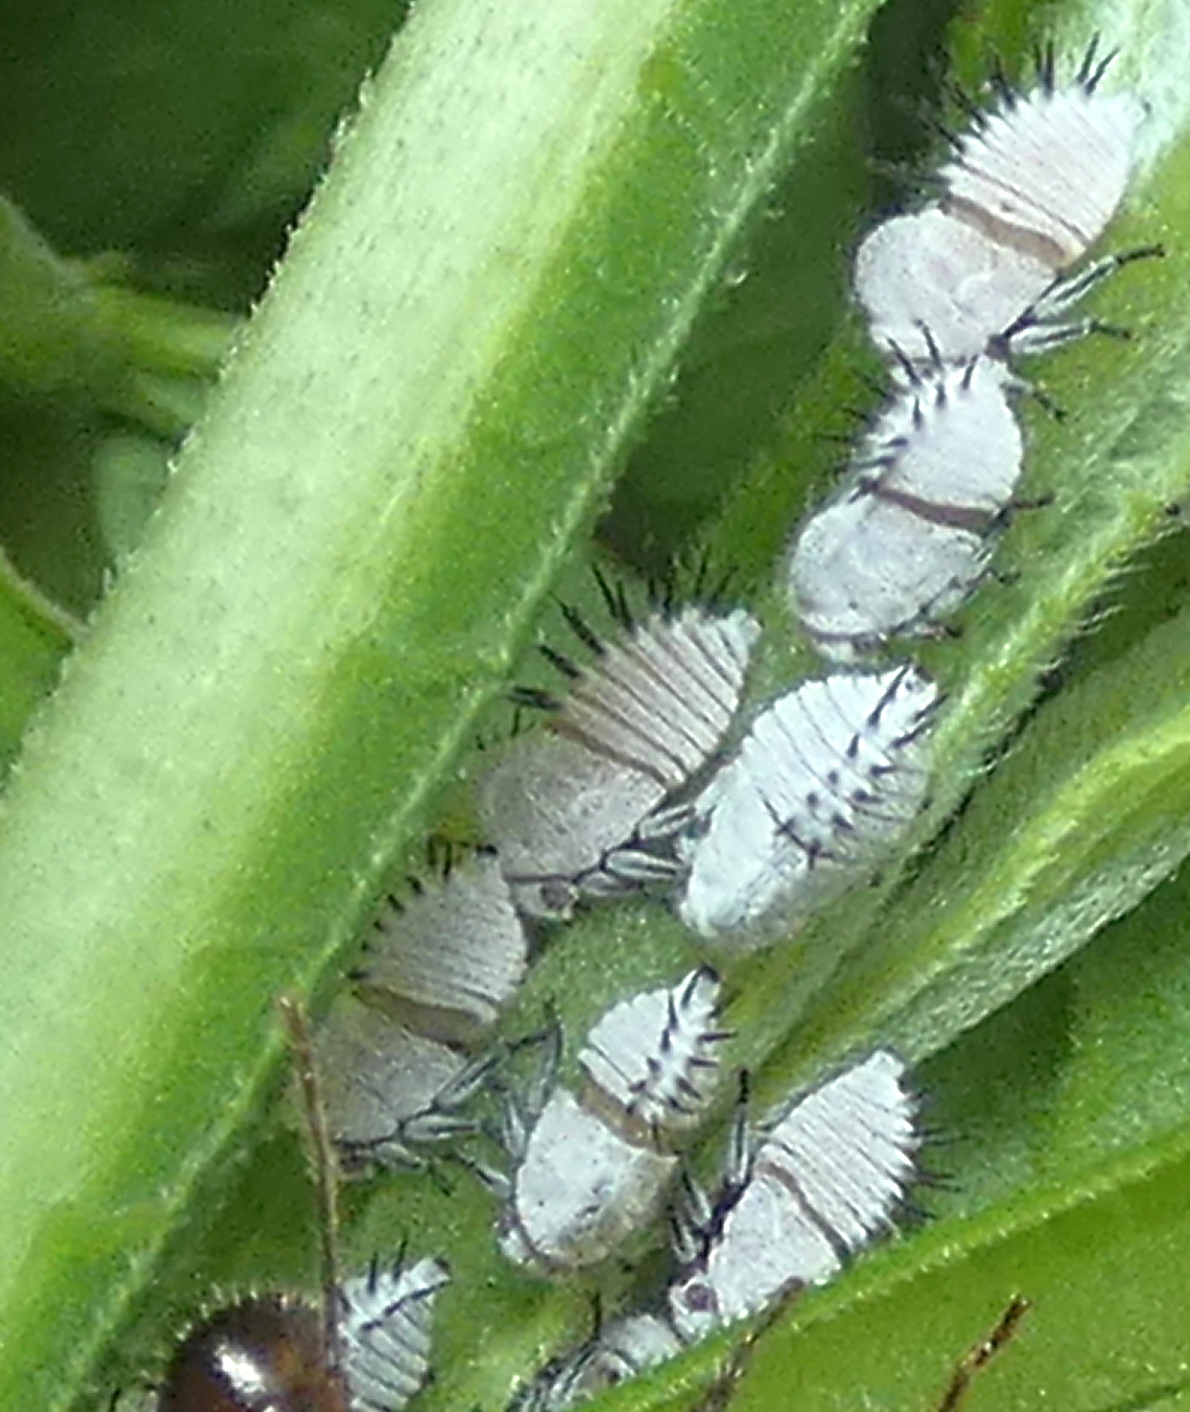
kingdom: Animalia
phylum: Arthropoda
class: Insecta
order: Hemiptera
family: Membracidae
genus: Membracis
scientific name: Membracis dorsata
